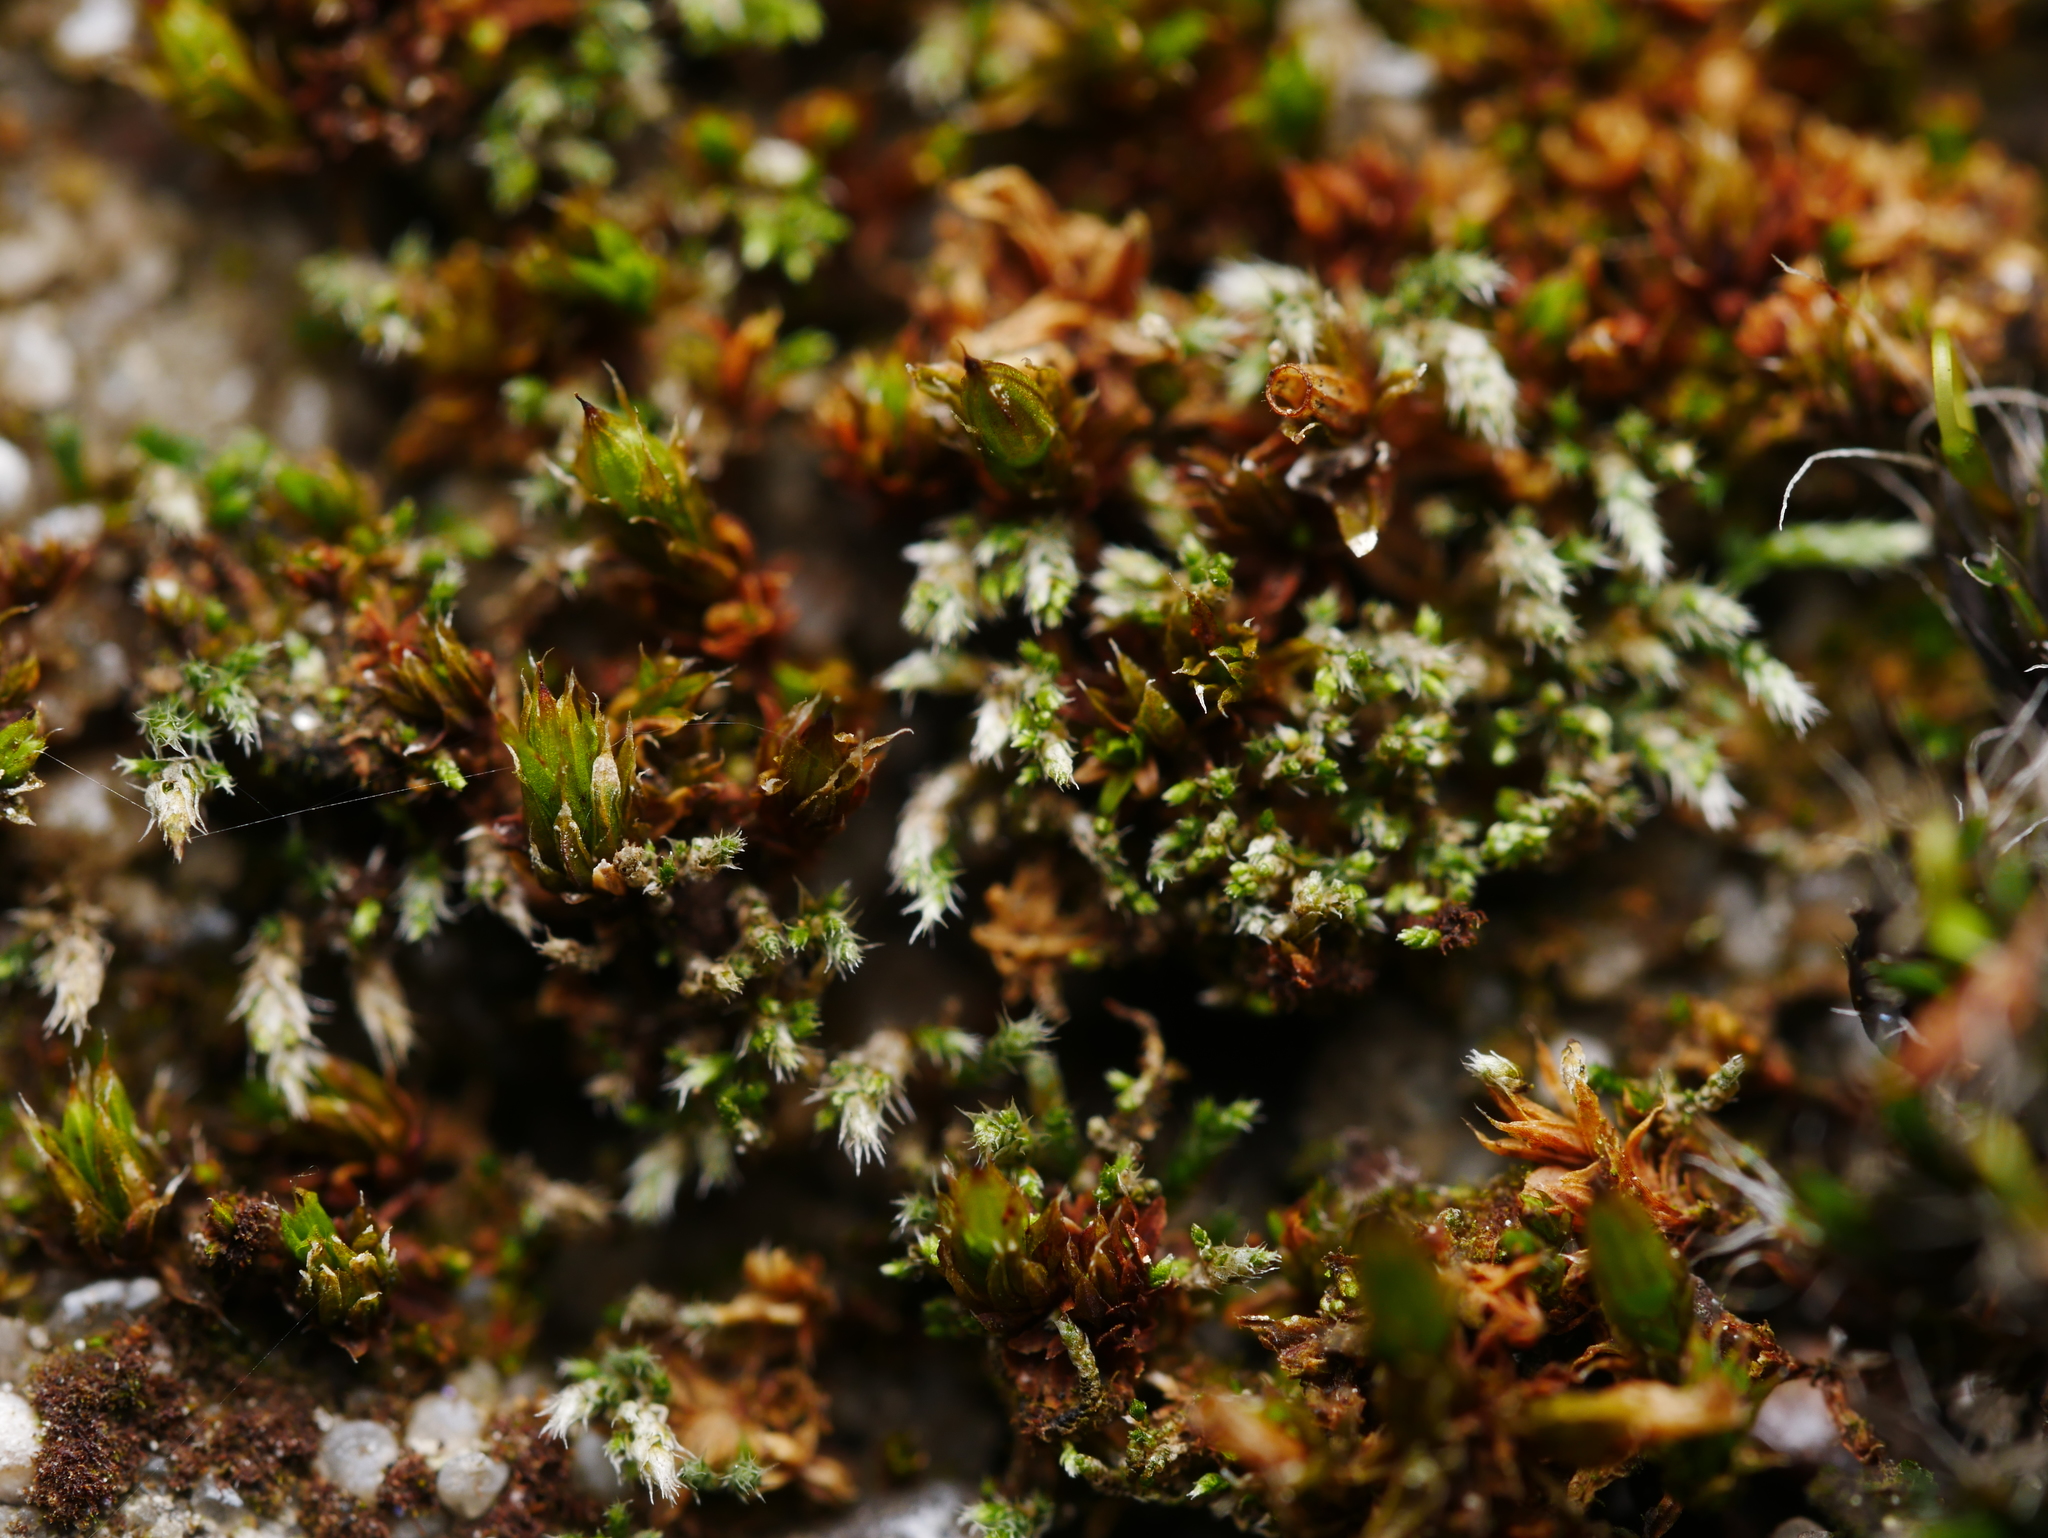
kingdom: Plantae
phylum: Bryophyta
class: Bryopsida
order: Bryales
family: Bryaceae
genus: Bryum
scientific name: Bryum argenteum
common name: Silver-moss
